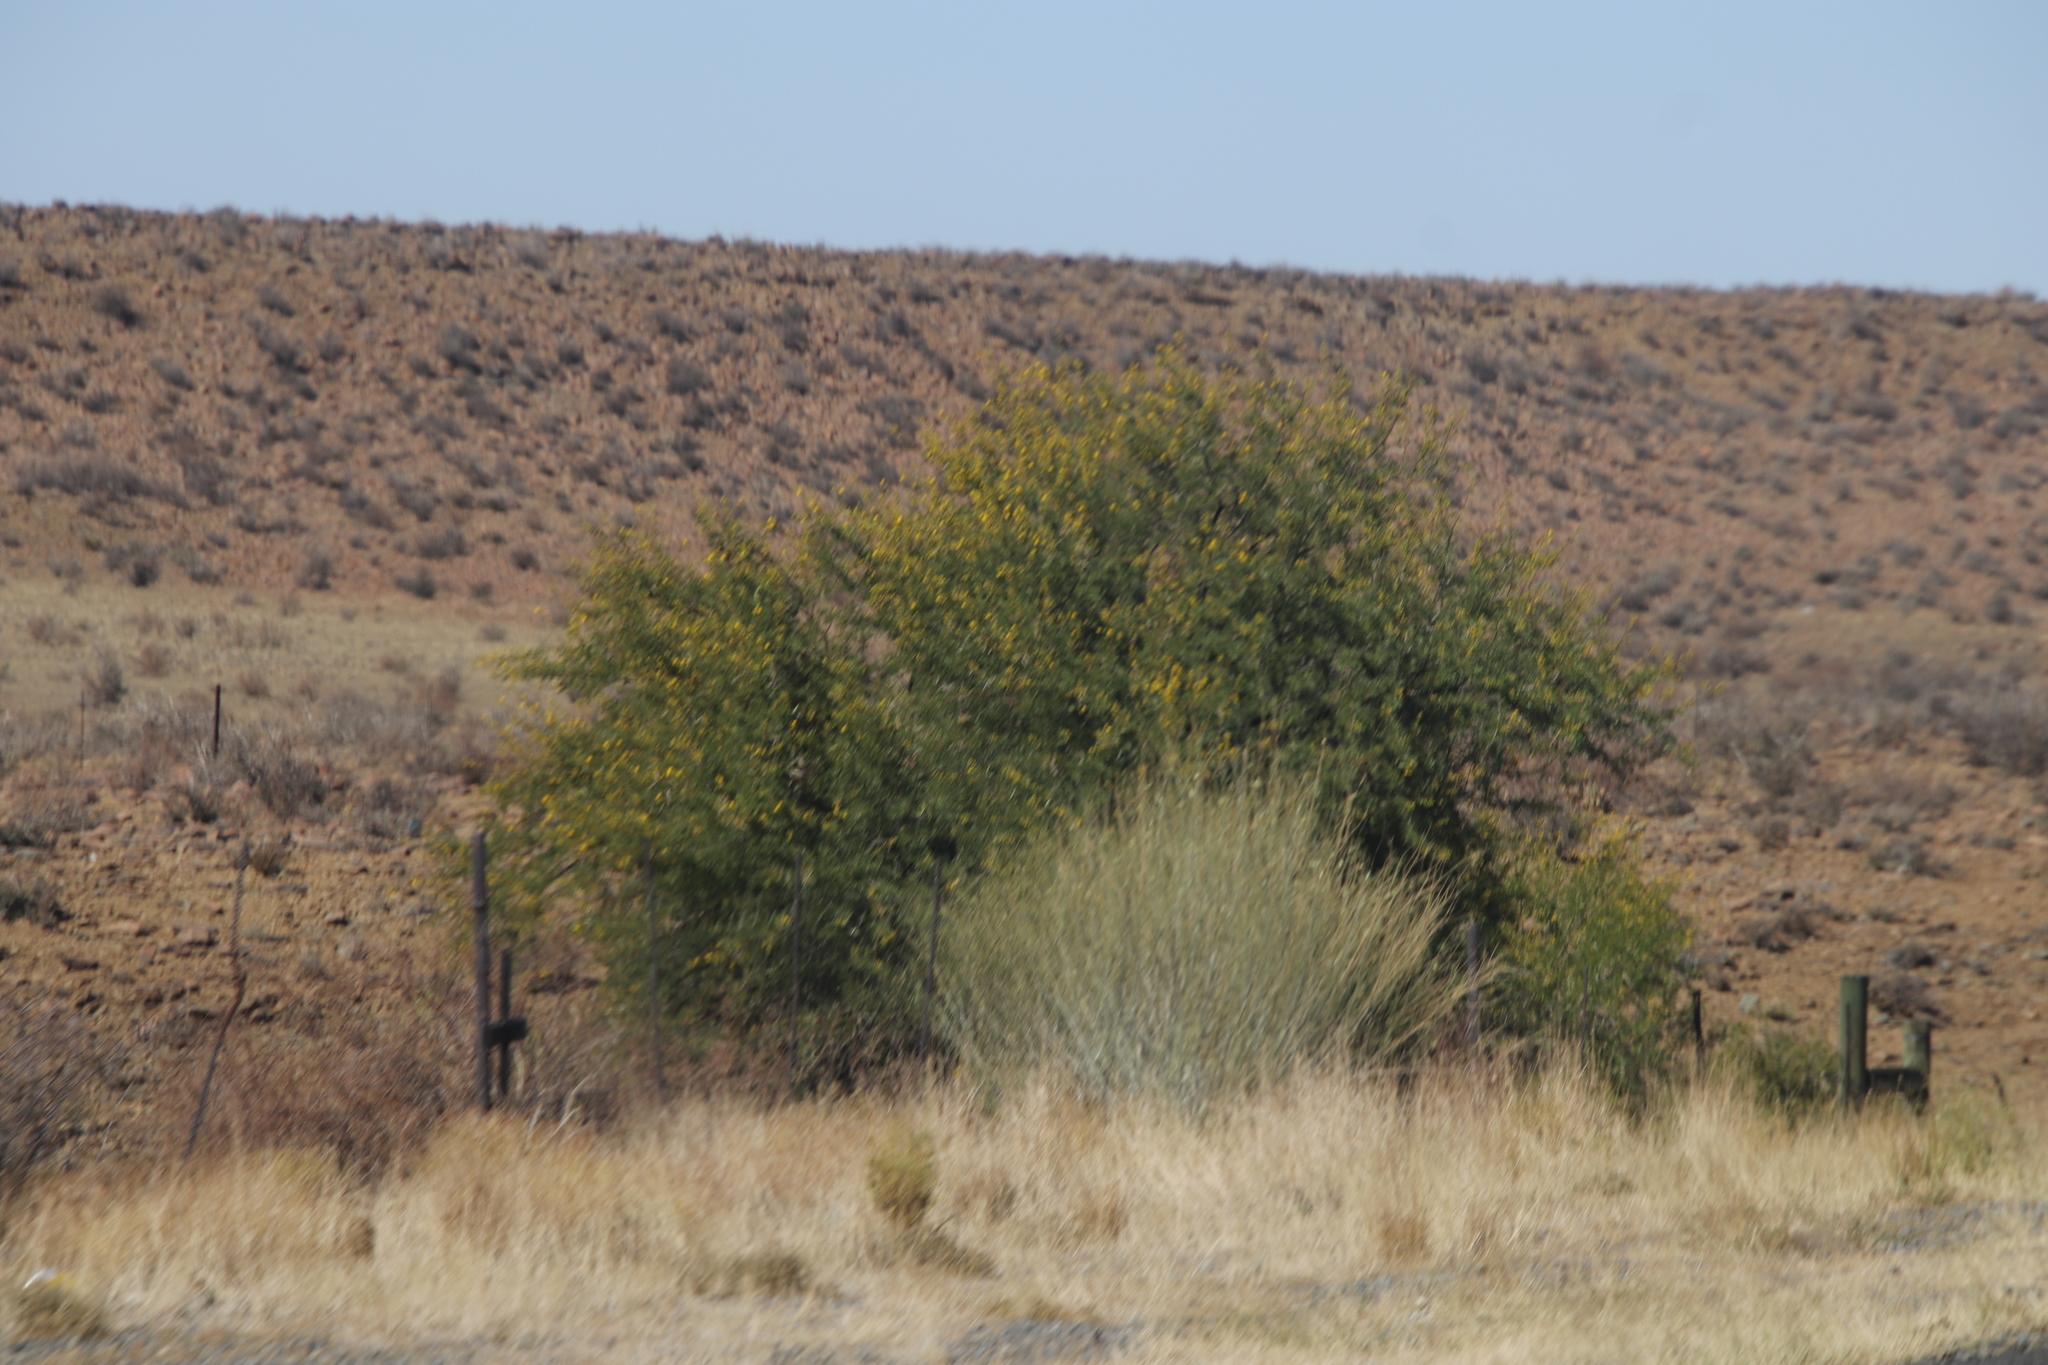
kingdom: Plantae
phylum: Tracheophyta
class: Magnoliopsida
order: Gentianales
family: Apocynaceae
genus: Gomphocarpus
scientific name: Gomphocarpus filiformis
